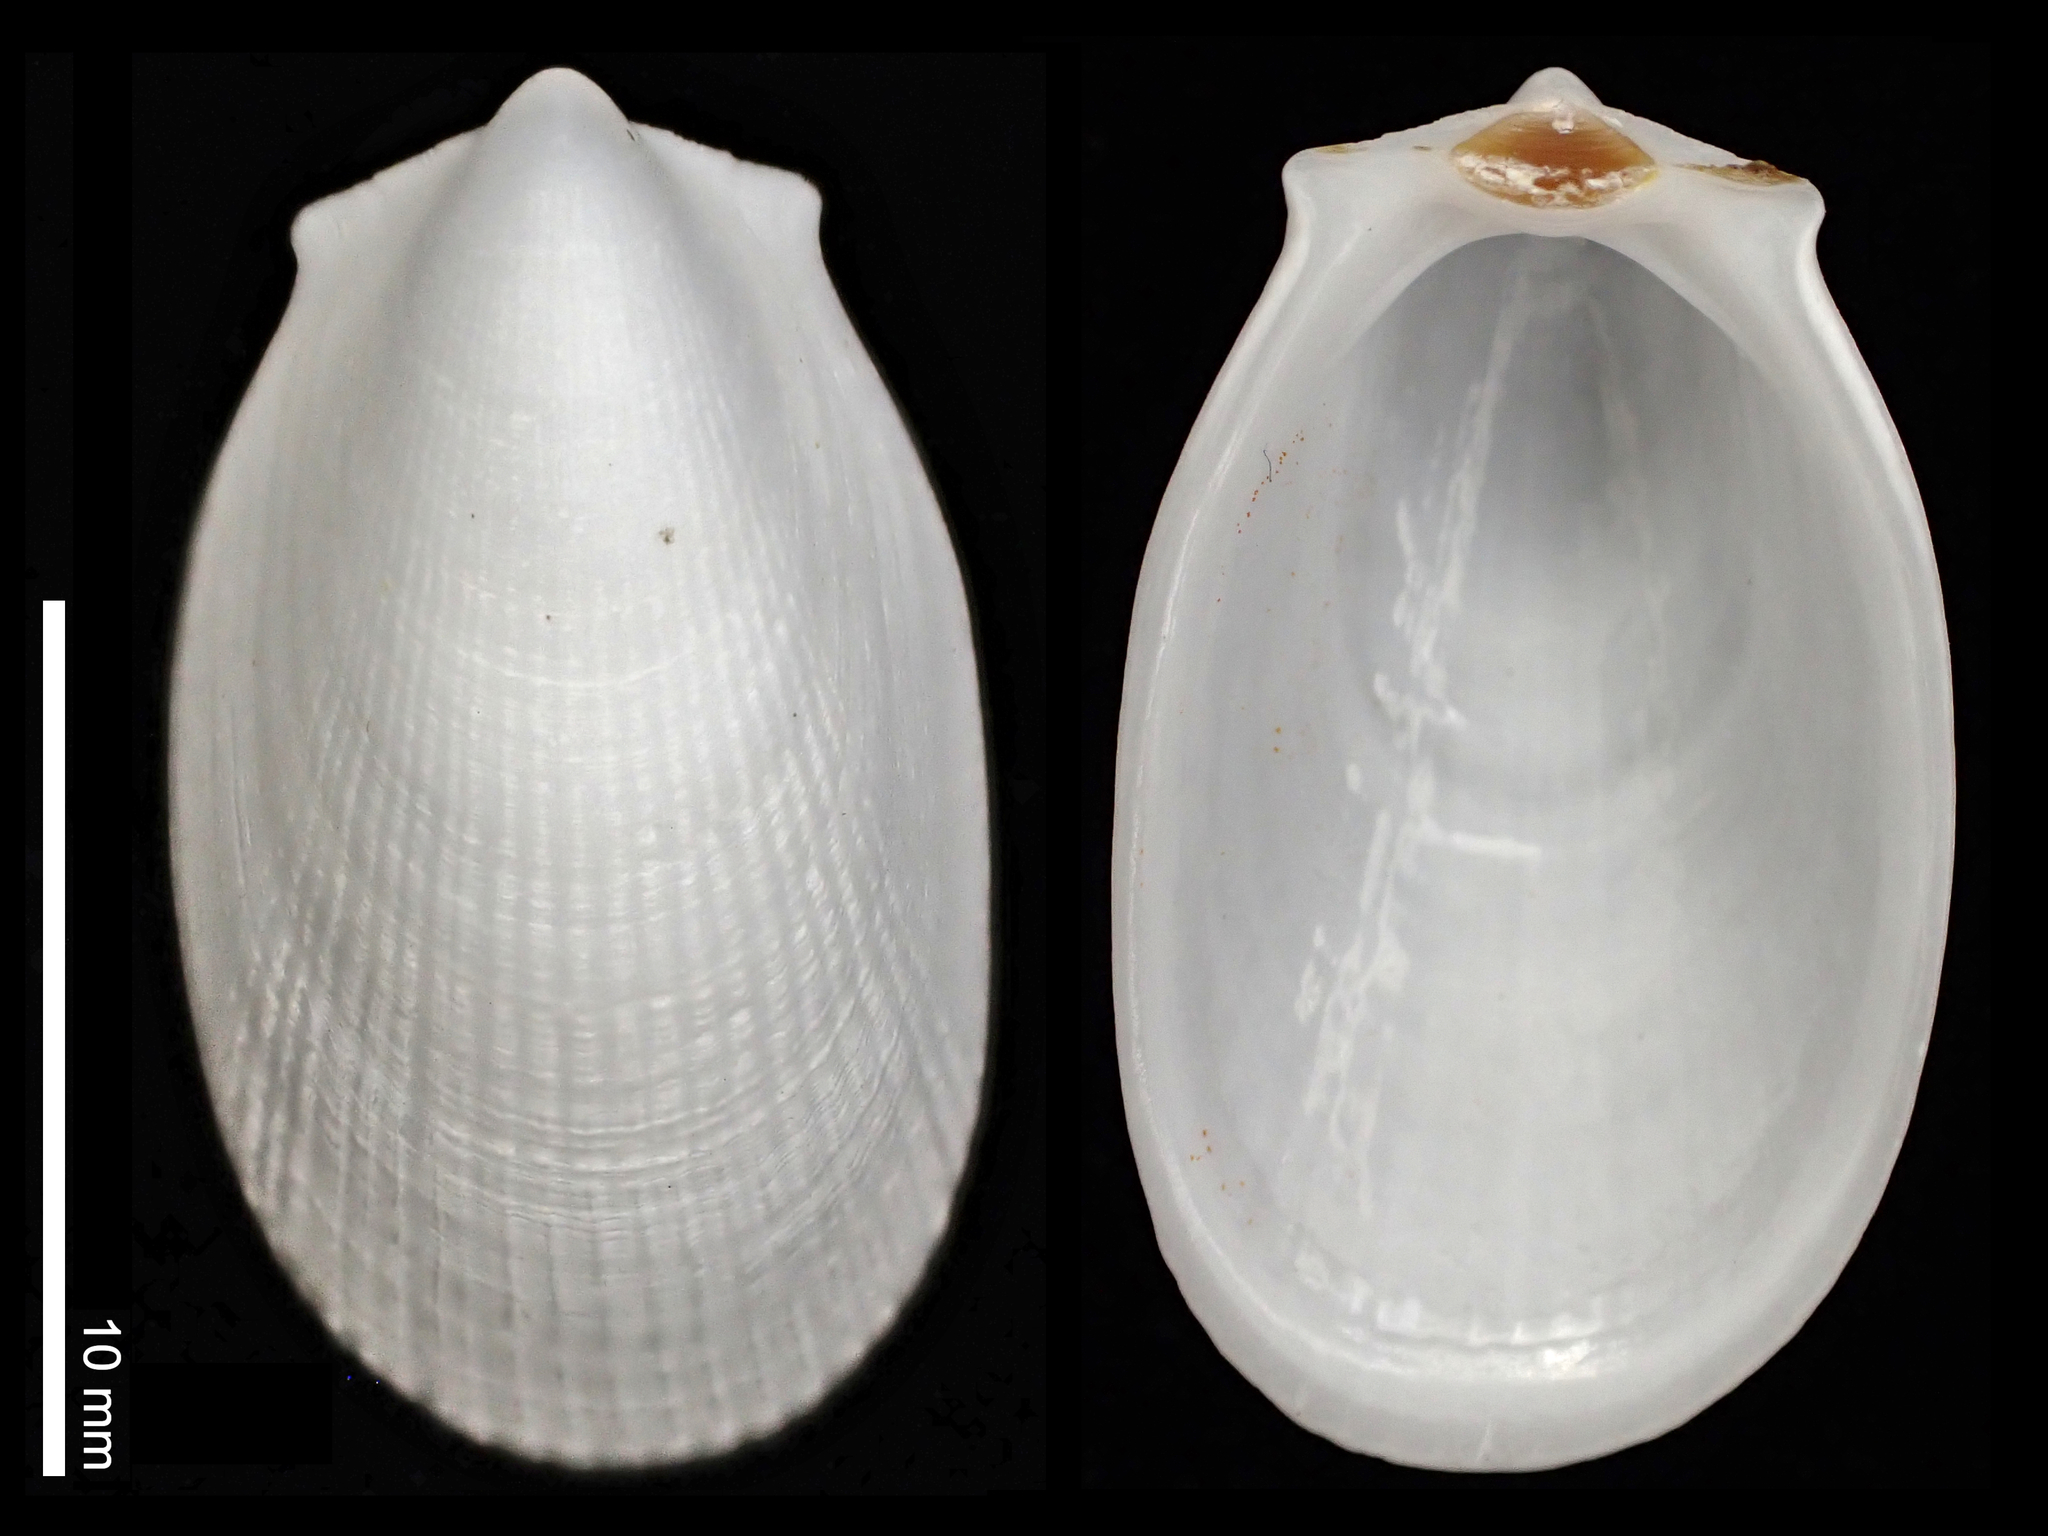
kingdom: Animalia
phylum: Mollusca
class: Bivalvia
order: Limida
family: Limidae
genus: Limatula
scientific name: Limatula maoria
